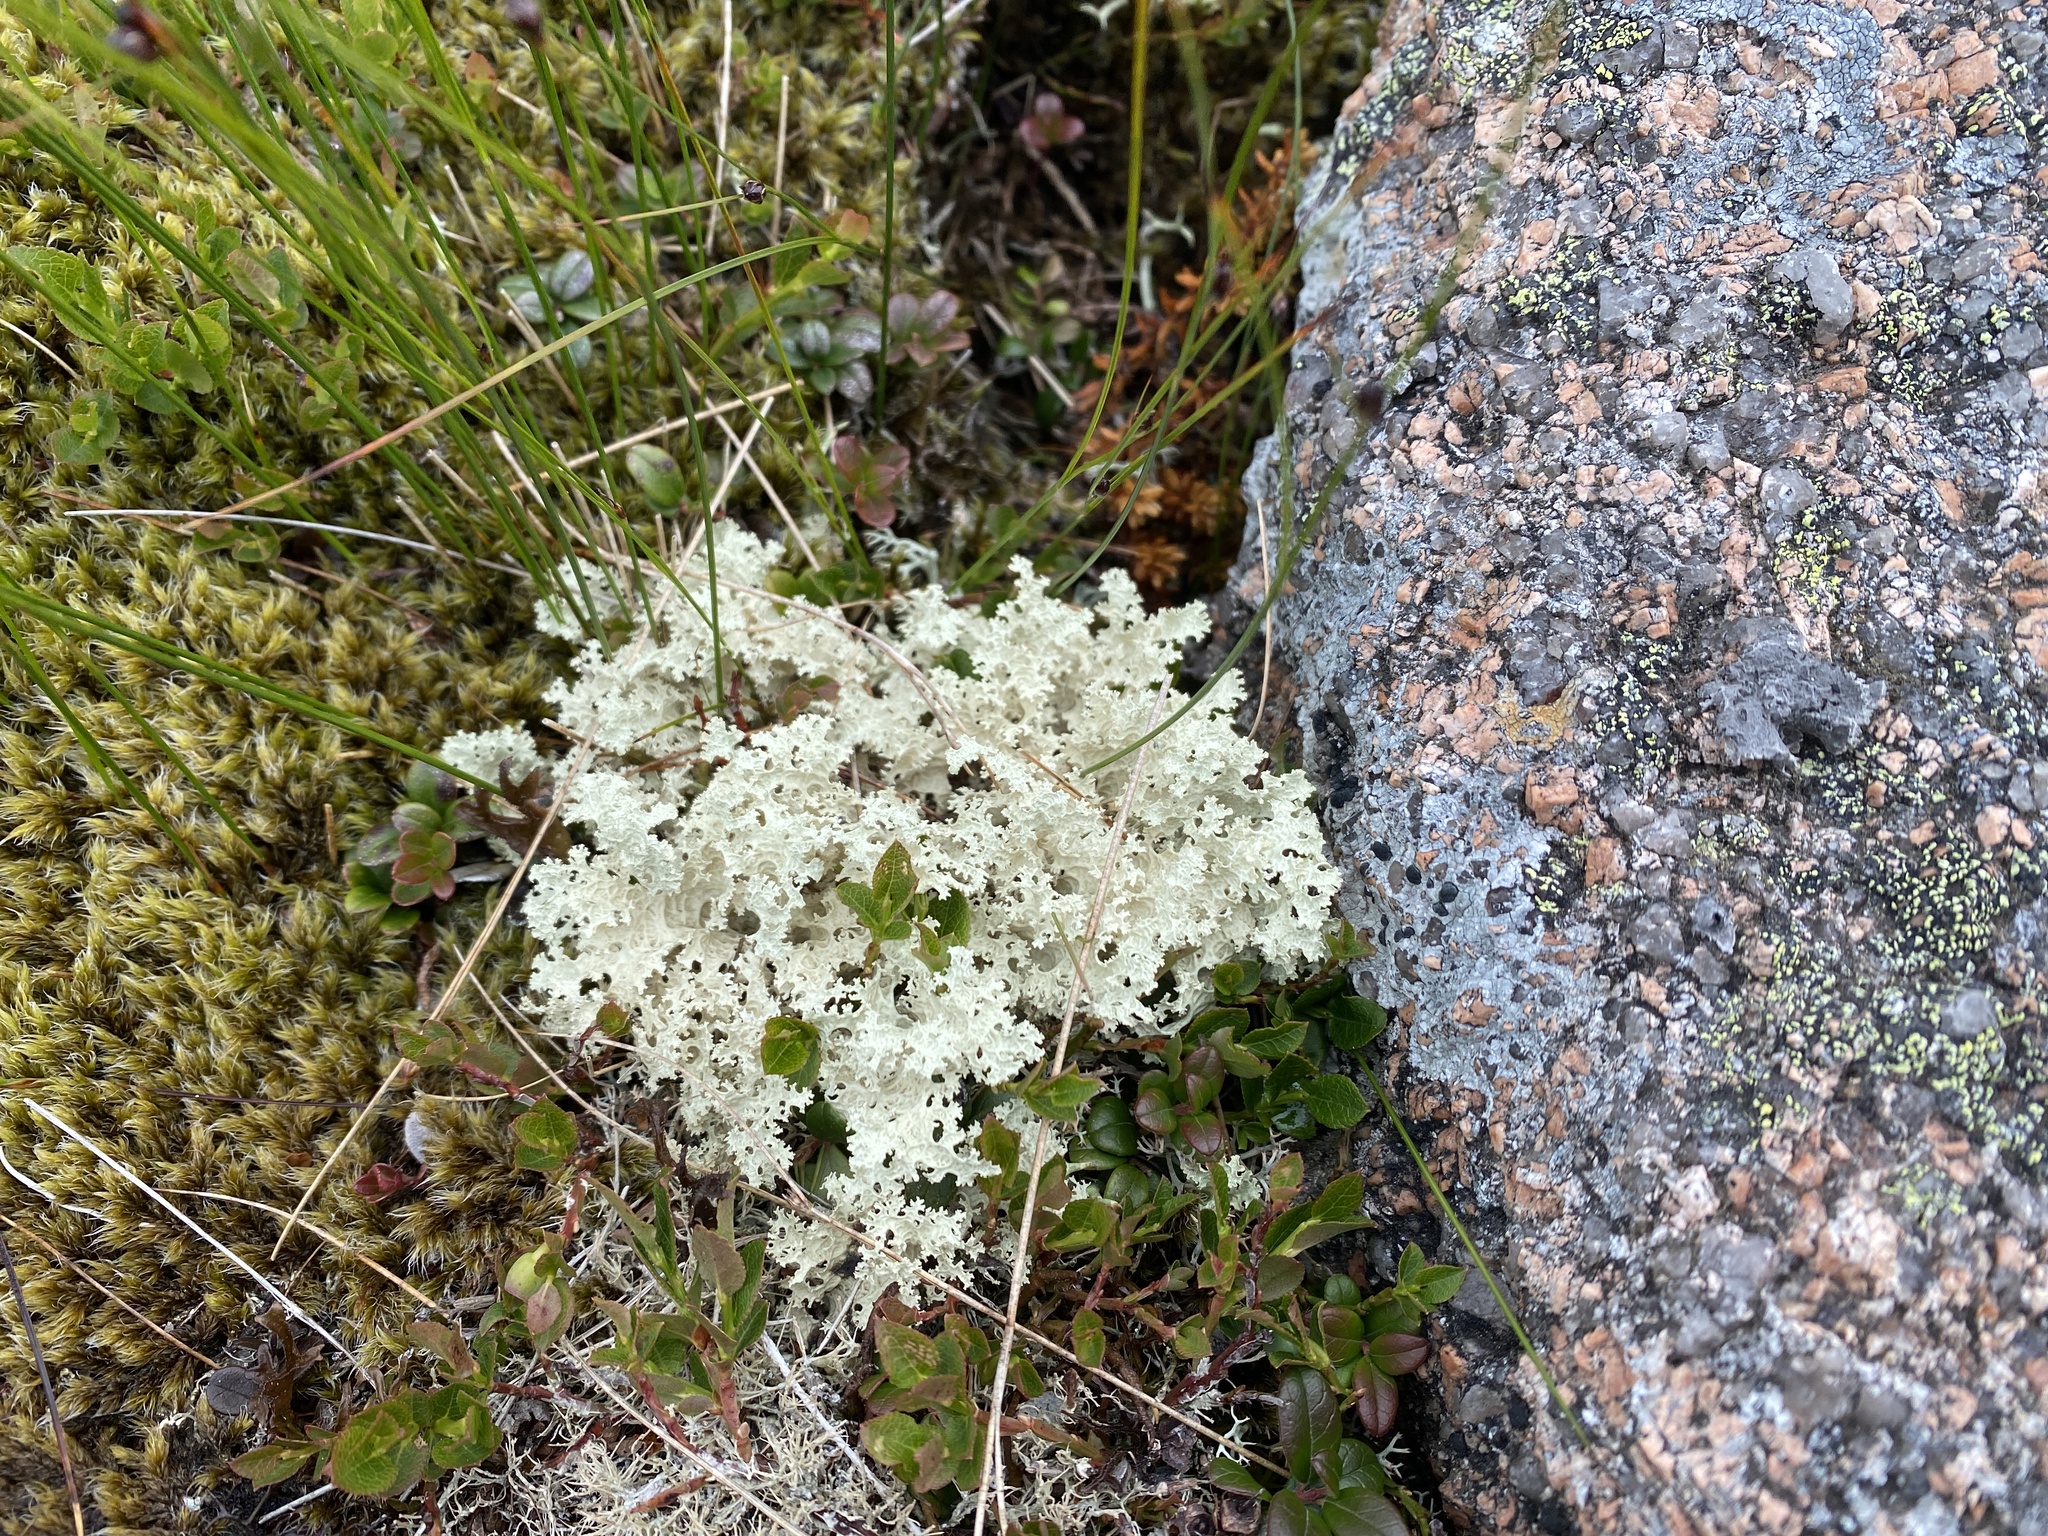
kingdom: Fungi
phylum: Ascomycota
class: Lecanoromycetes
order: Lecanorales
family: Parmeliaceae
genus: Nephromopsis
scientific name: Nephromopsis nivalis
